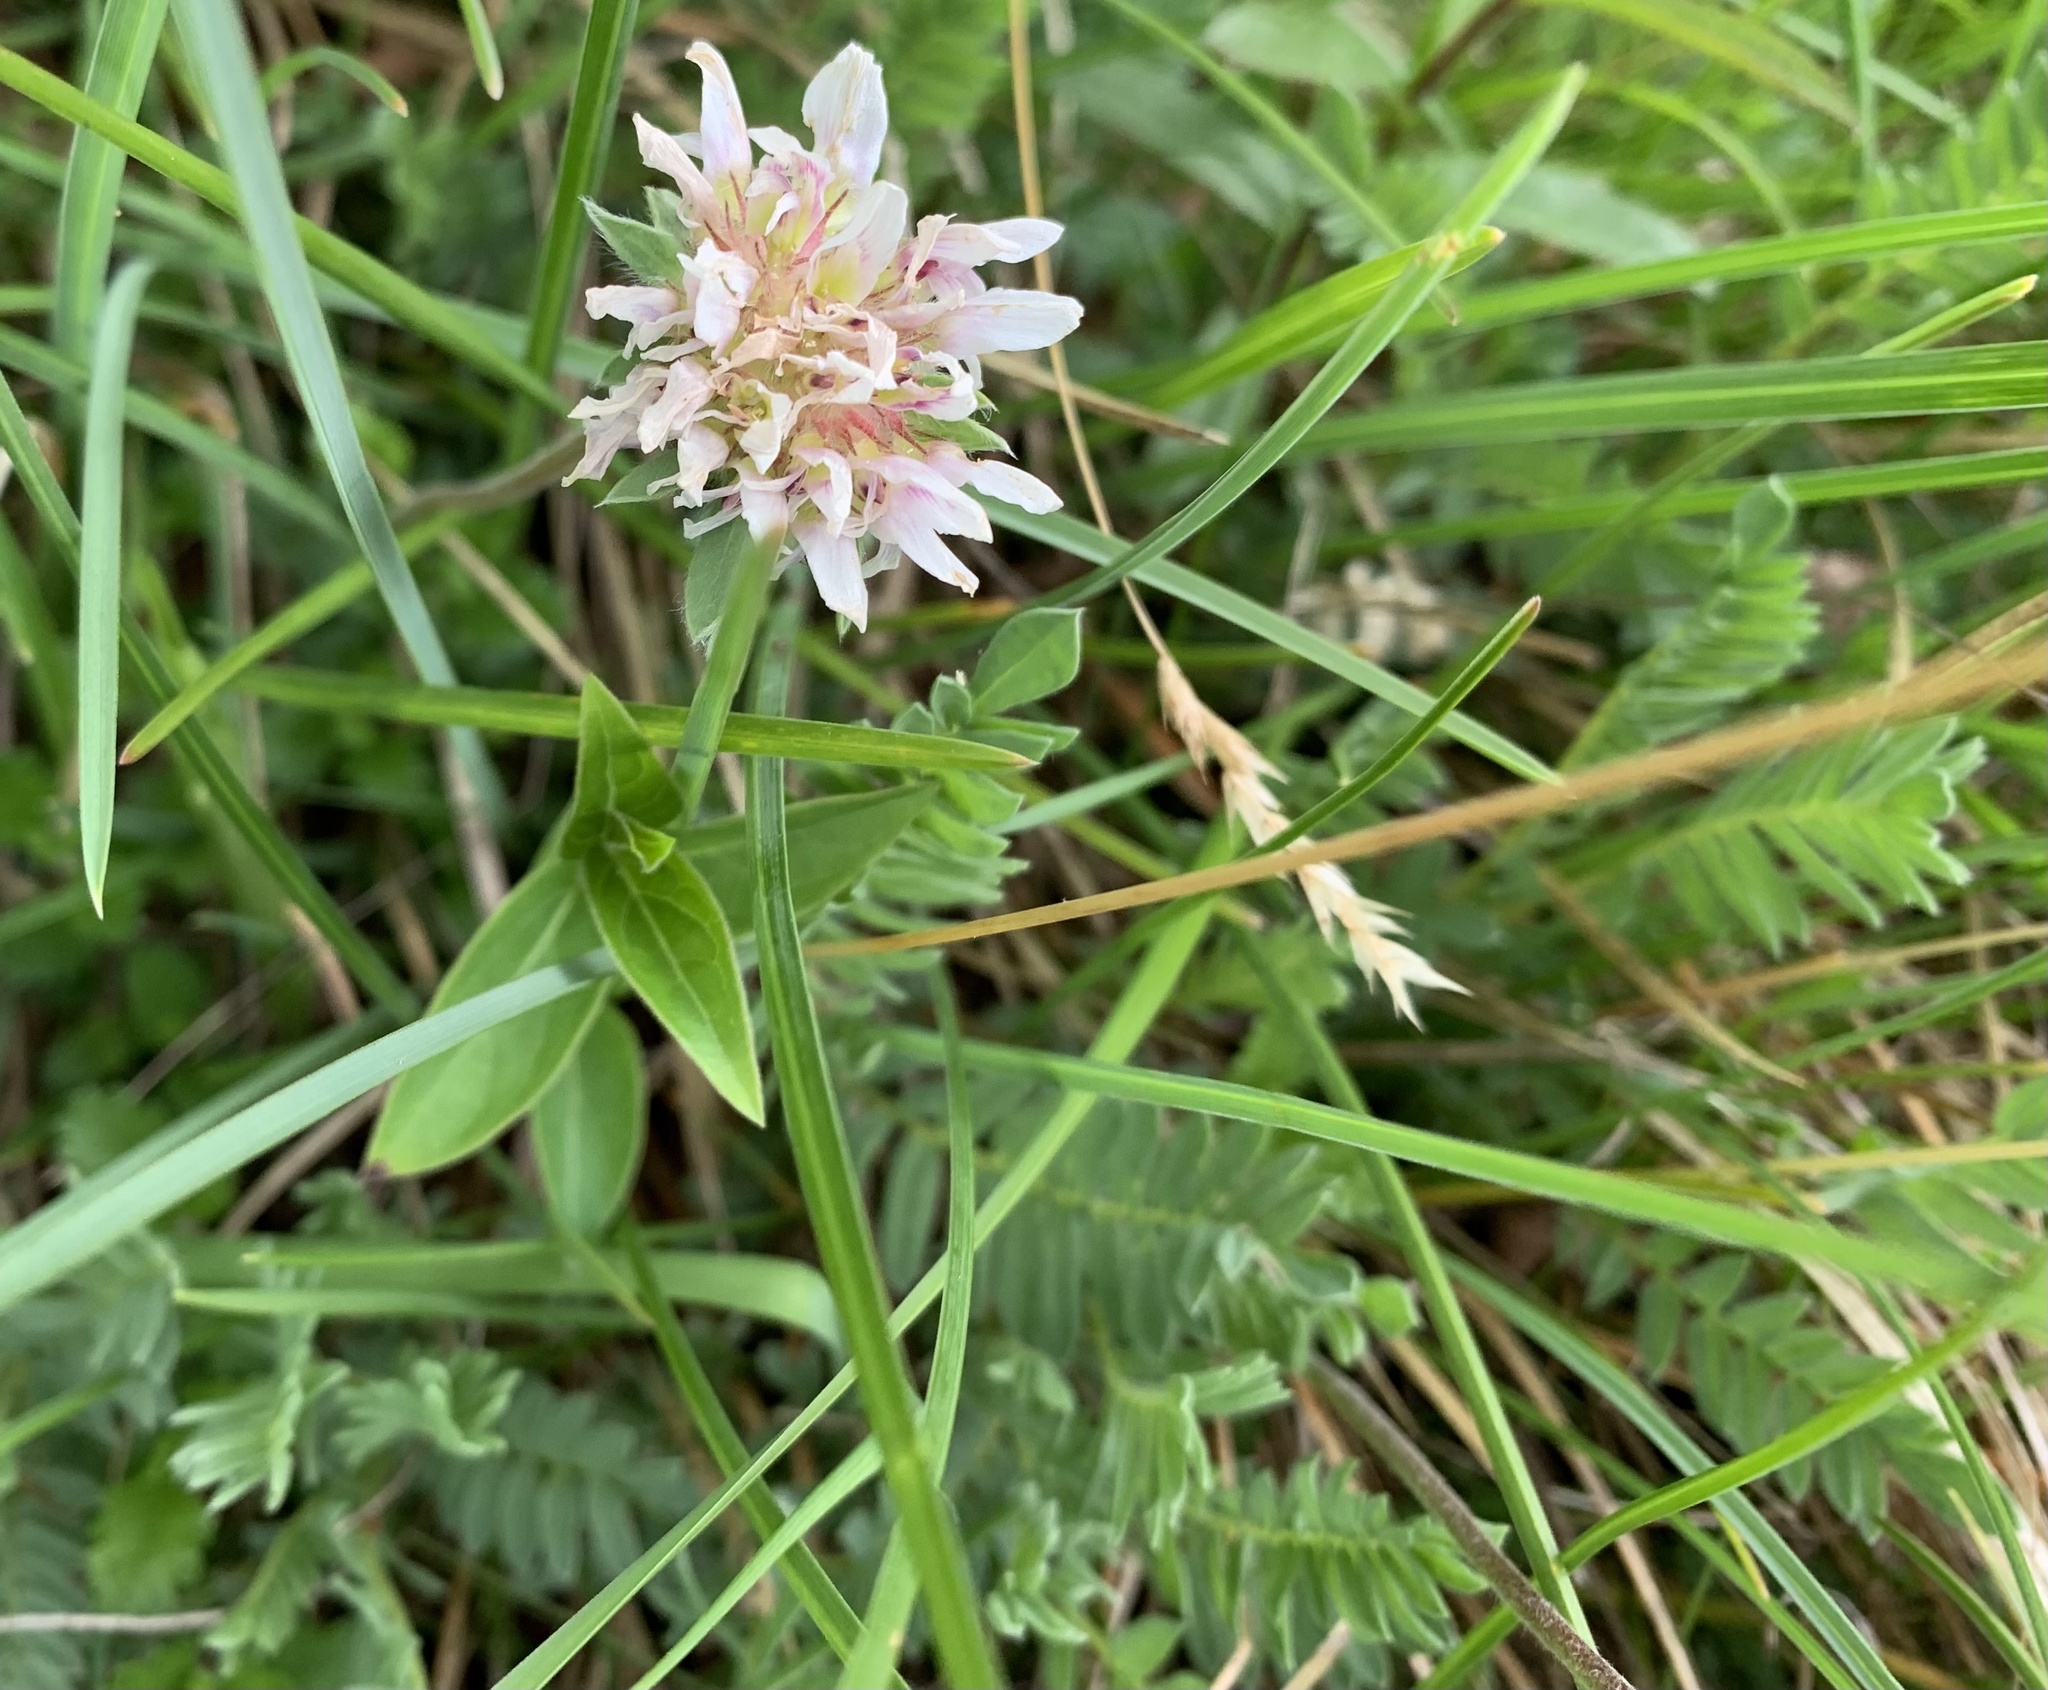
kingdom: Plantae
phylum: Tracheophyta
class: Magnoliopsida
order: Fabales
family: Fabaceae
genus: Anthyllis
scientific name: Anthyllis montana
